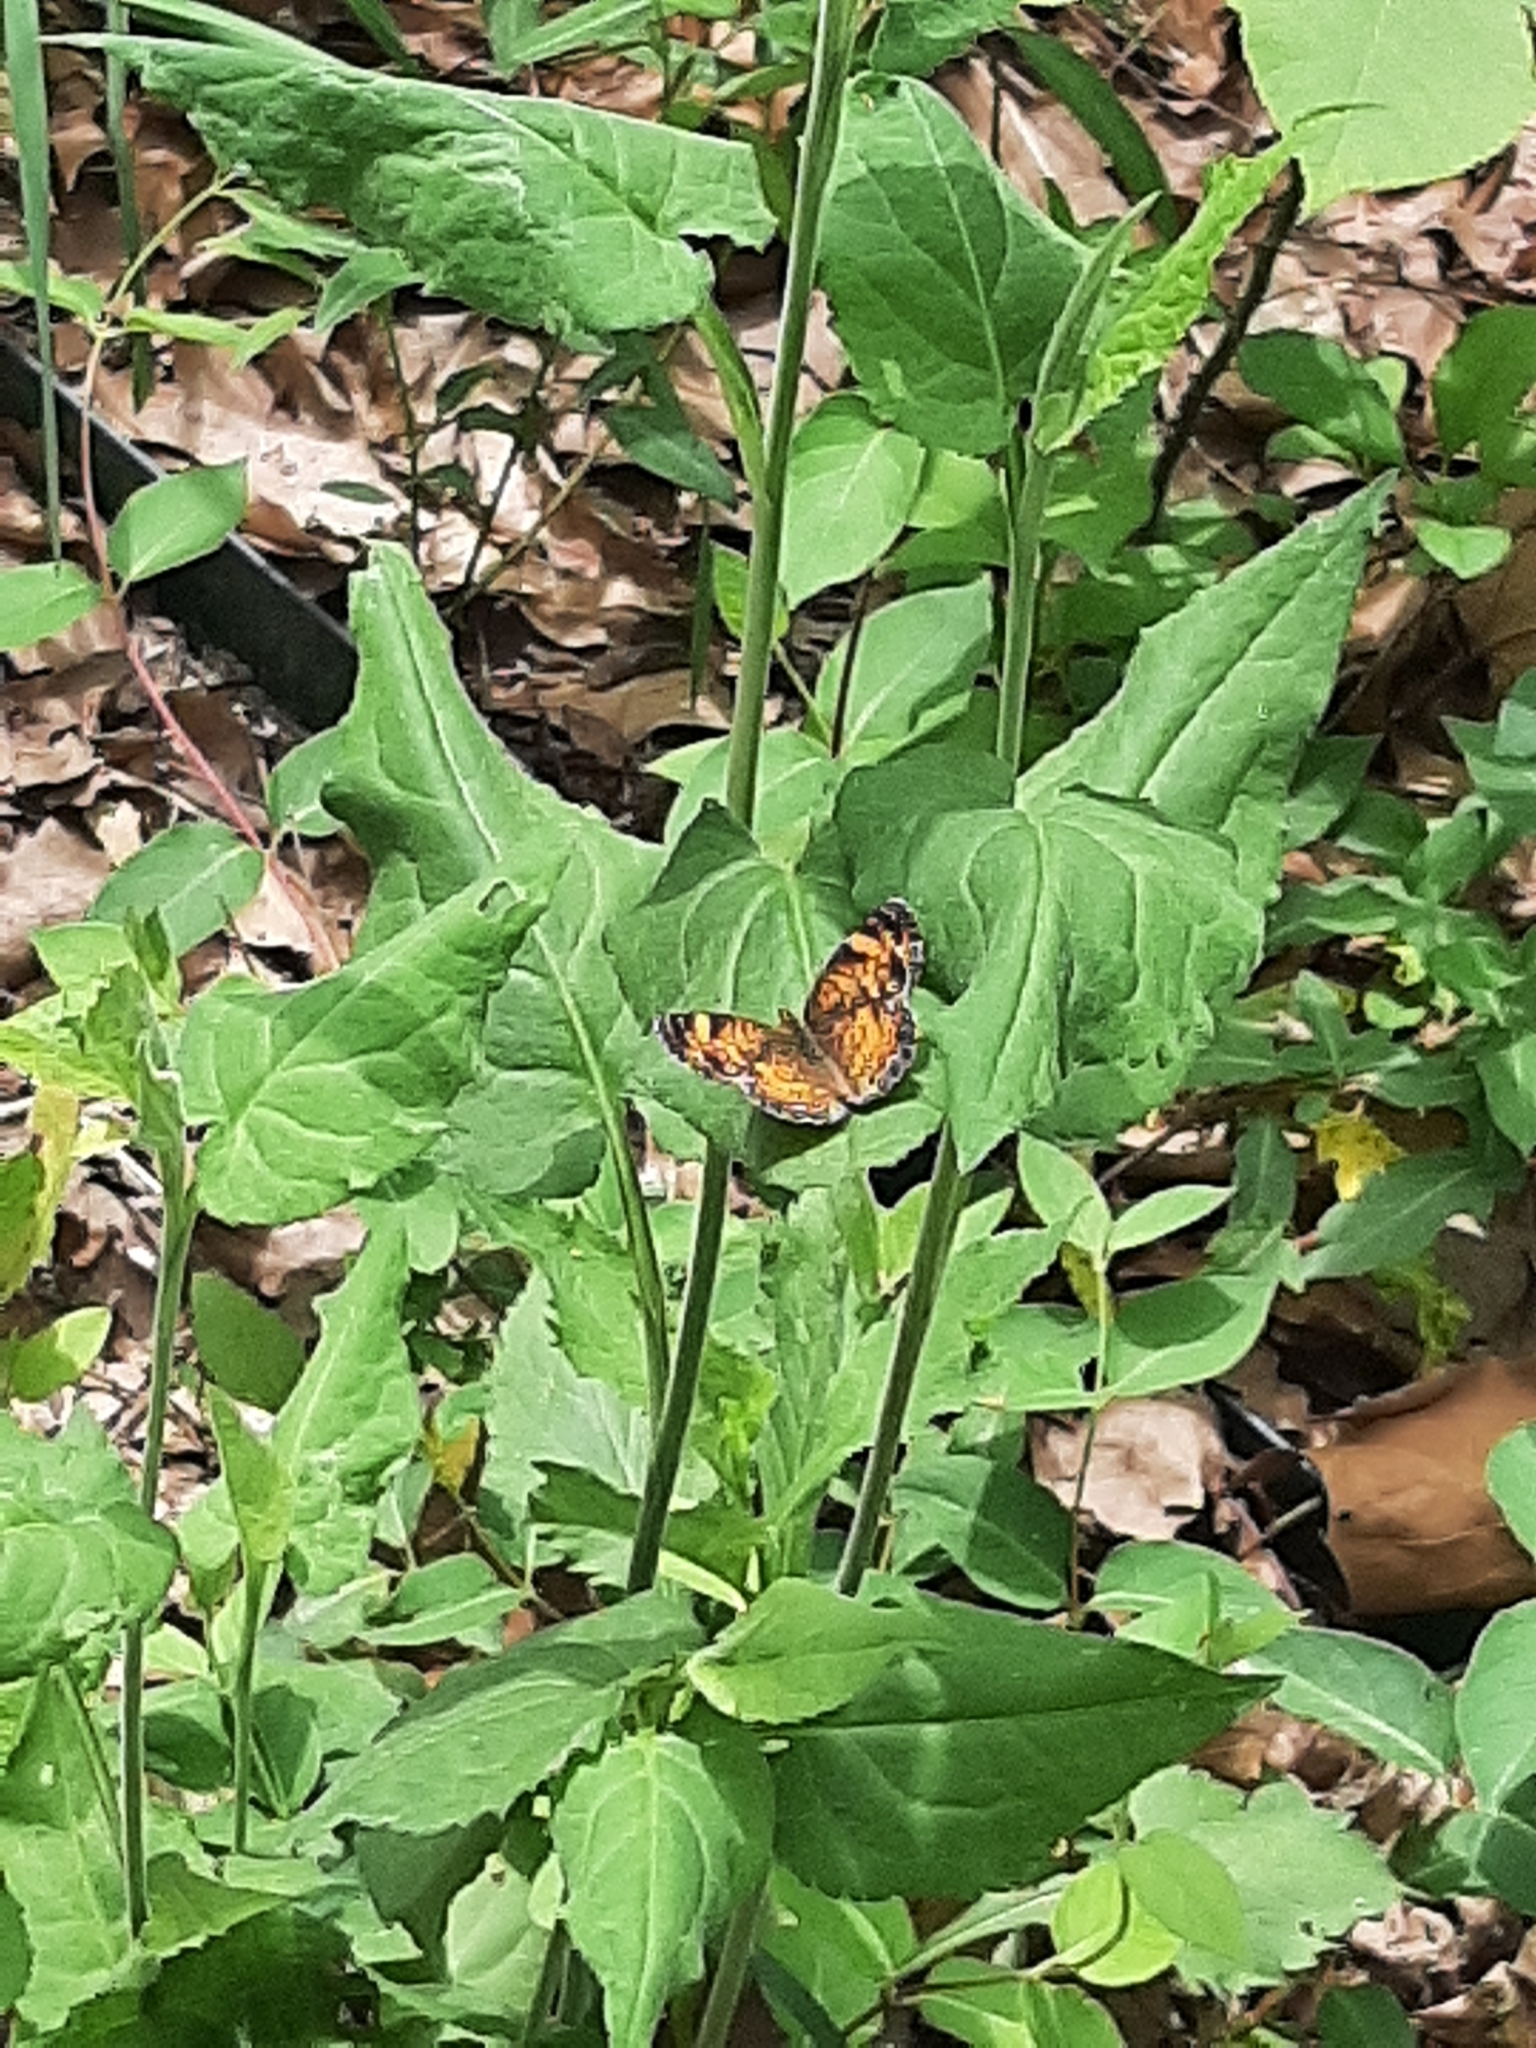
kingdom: Animalia
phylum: Arthropoda
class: Insecta
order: Lepidoptera
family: Nymphalidae
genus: Phyciodes
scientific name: Phyciodes tharos
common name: Pearl crescent
